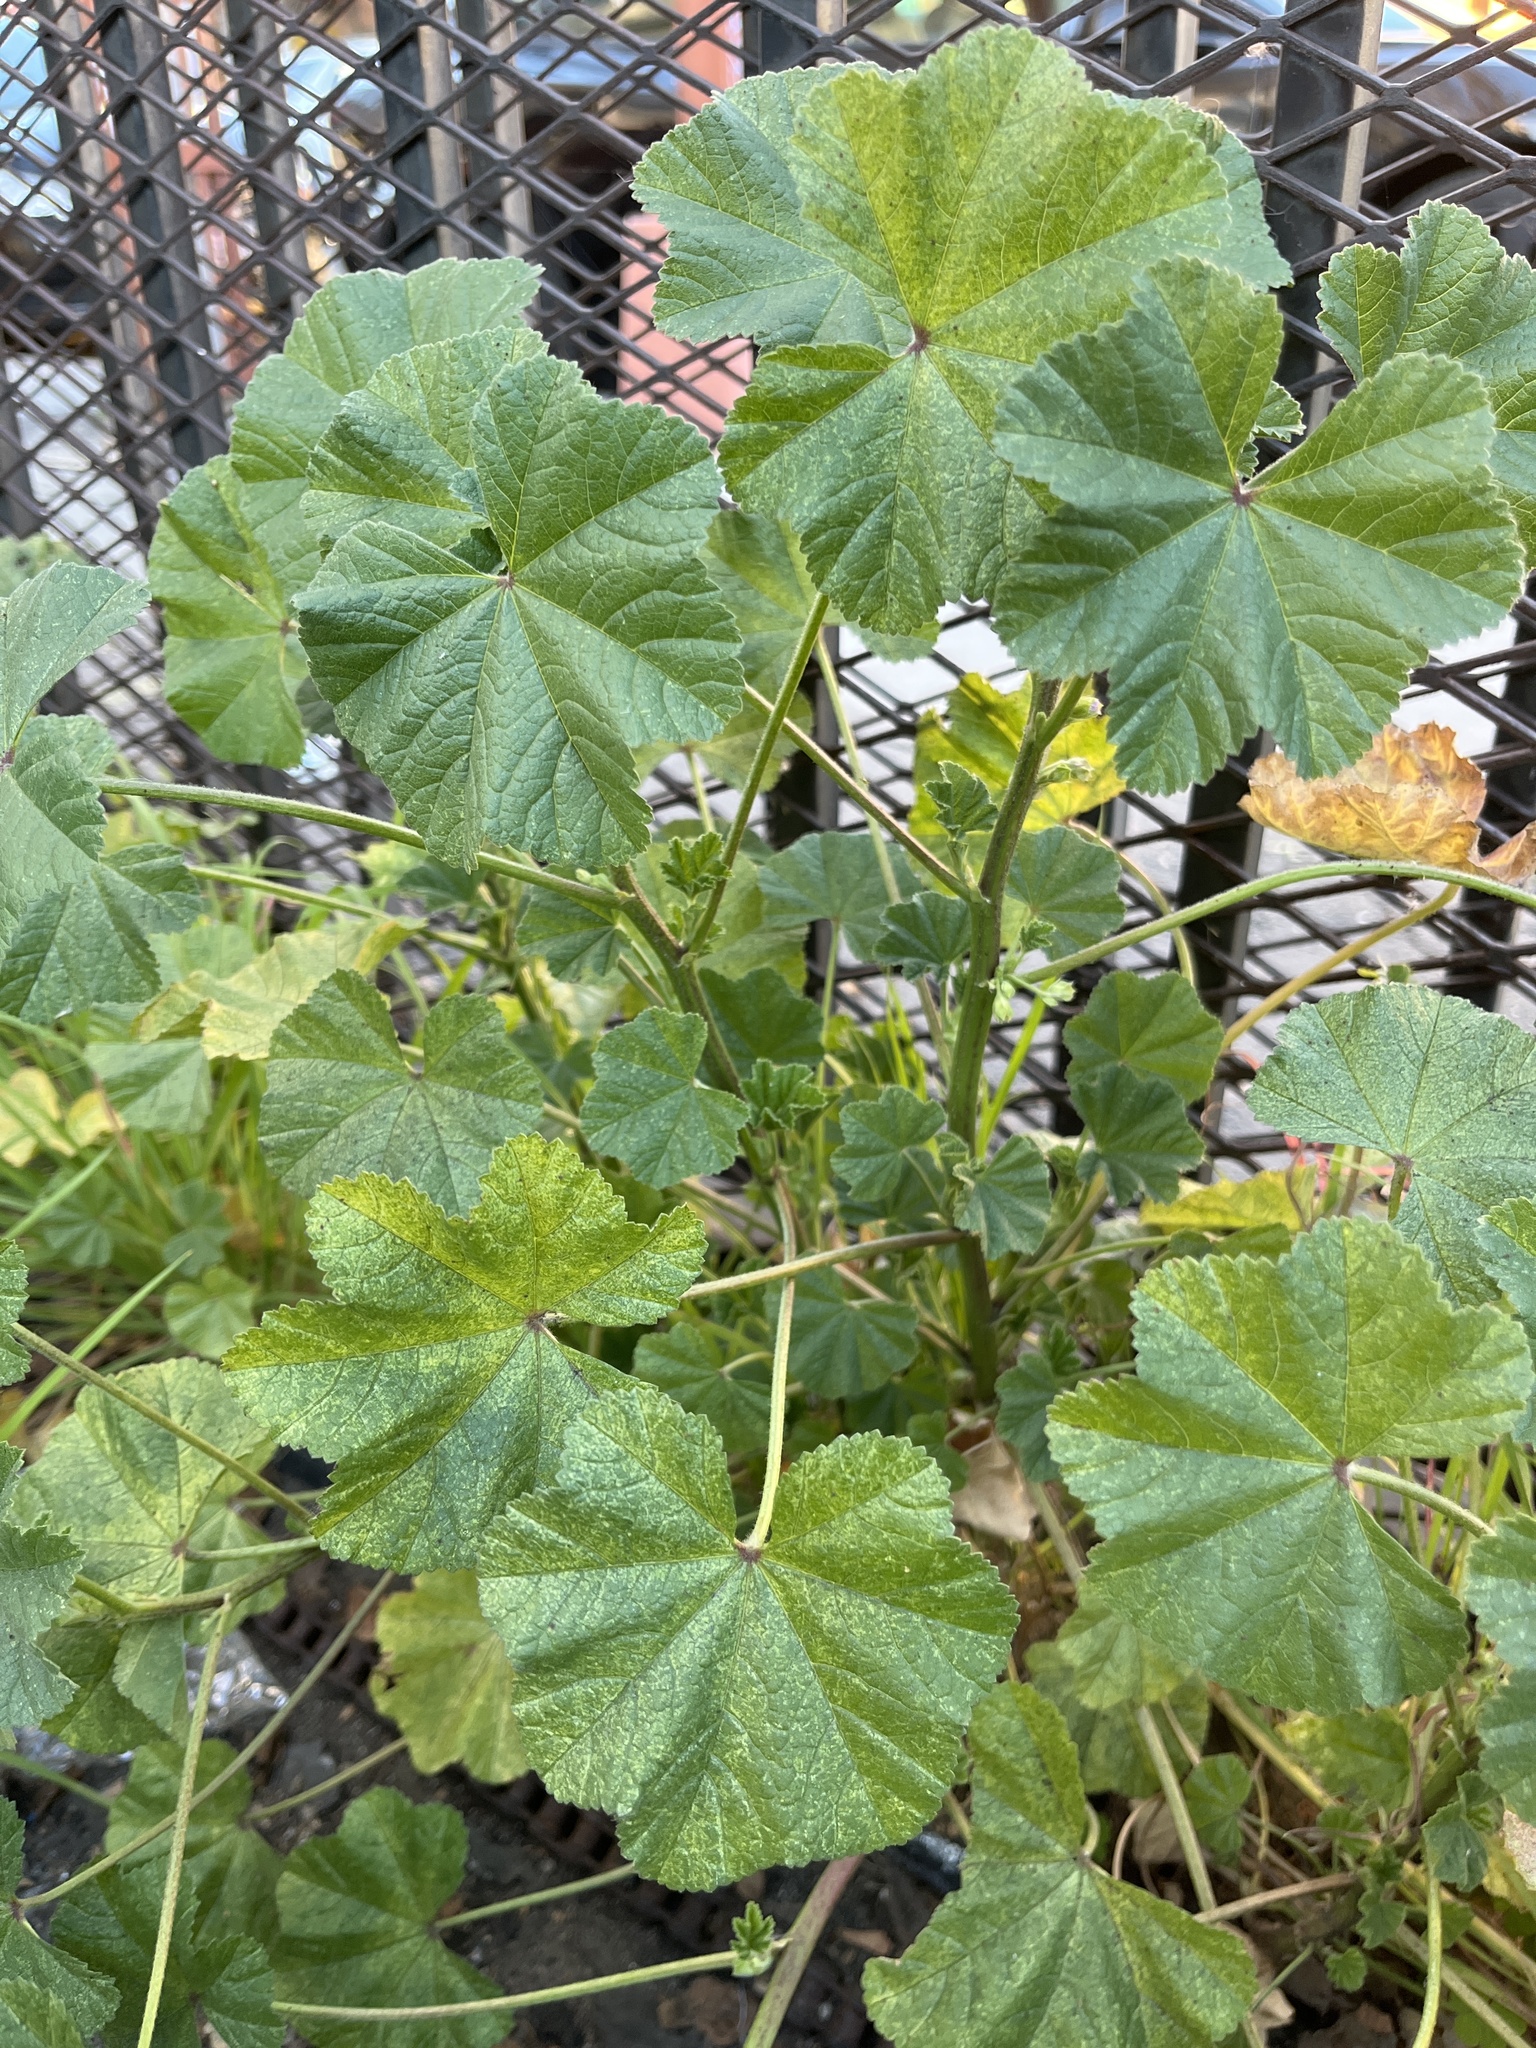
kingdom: Plantae
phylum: Tracheophyta
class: Magnoliopsida
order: Malvales
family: Malvaceae
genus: Malva
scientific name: Malva parviflora
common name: Least mallow
